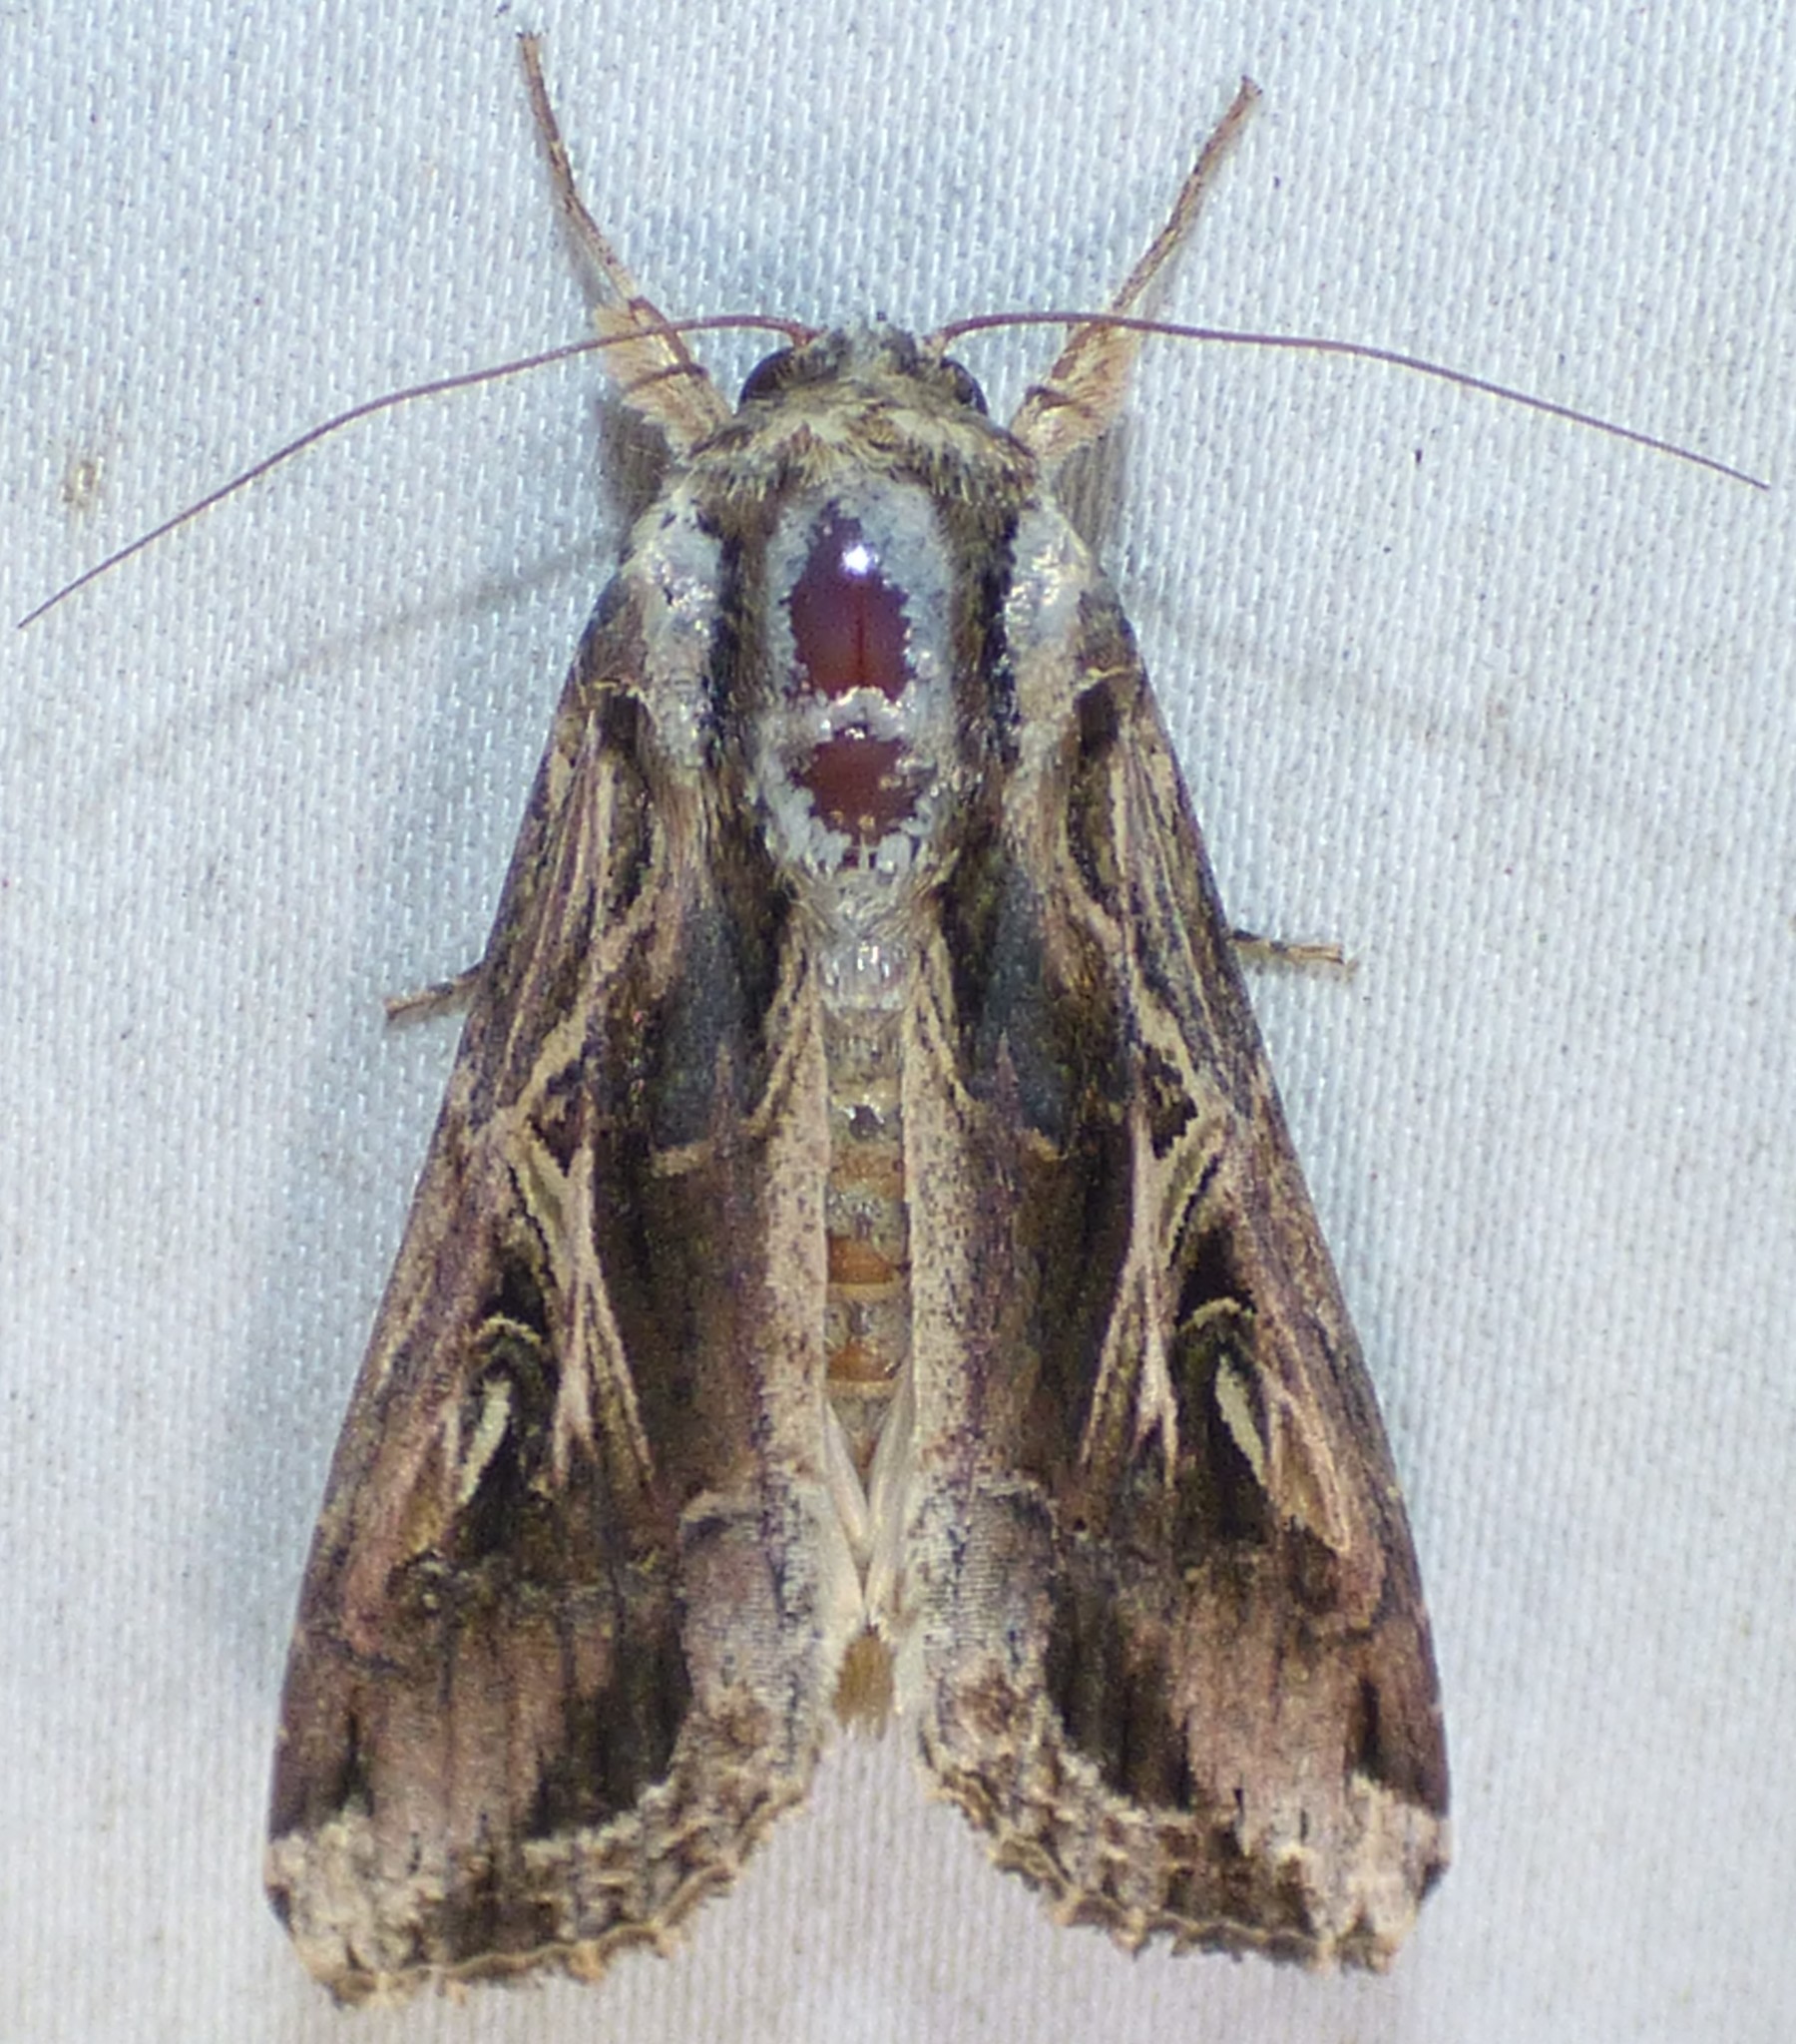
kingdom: Animalia
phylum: Arthropoda
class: Insecta
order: Lepidoptera
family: Noctuidae
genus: Spodoptera
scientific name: Spodoptera dolichos
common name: Sweetpotato armyworm
